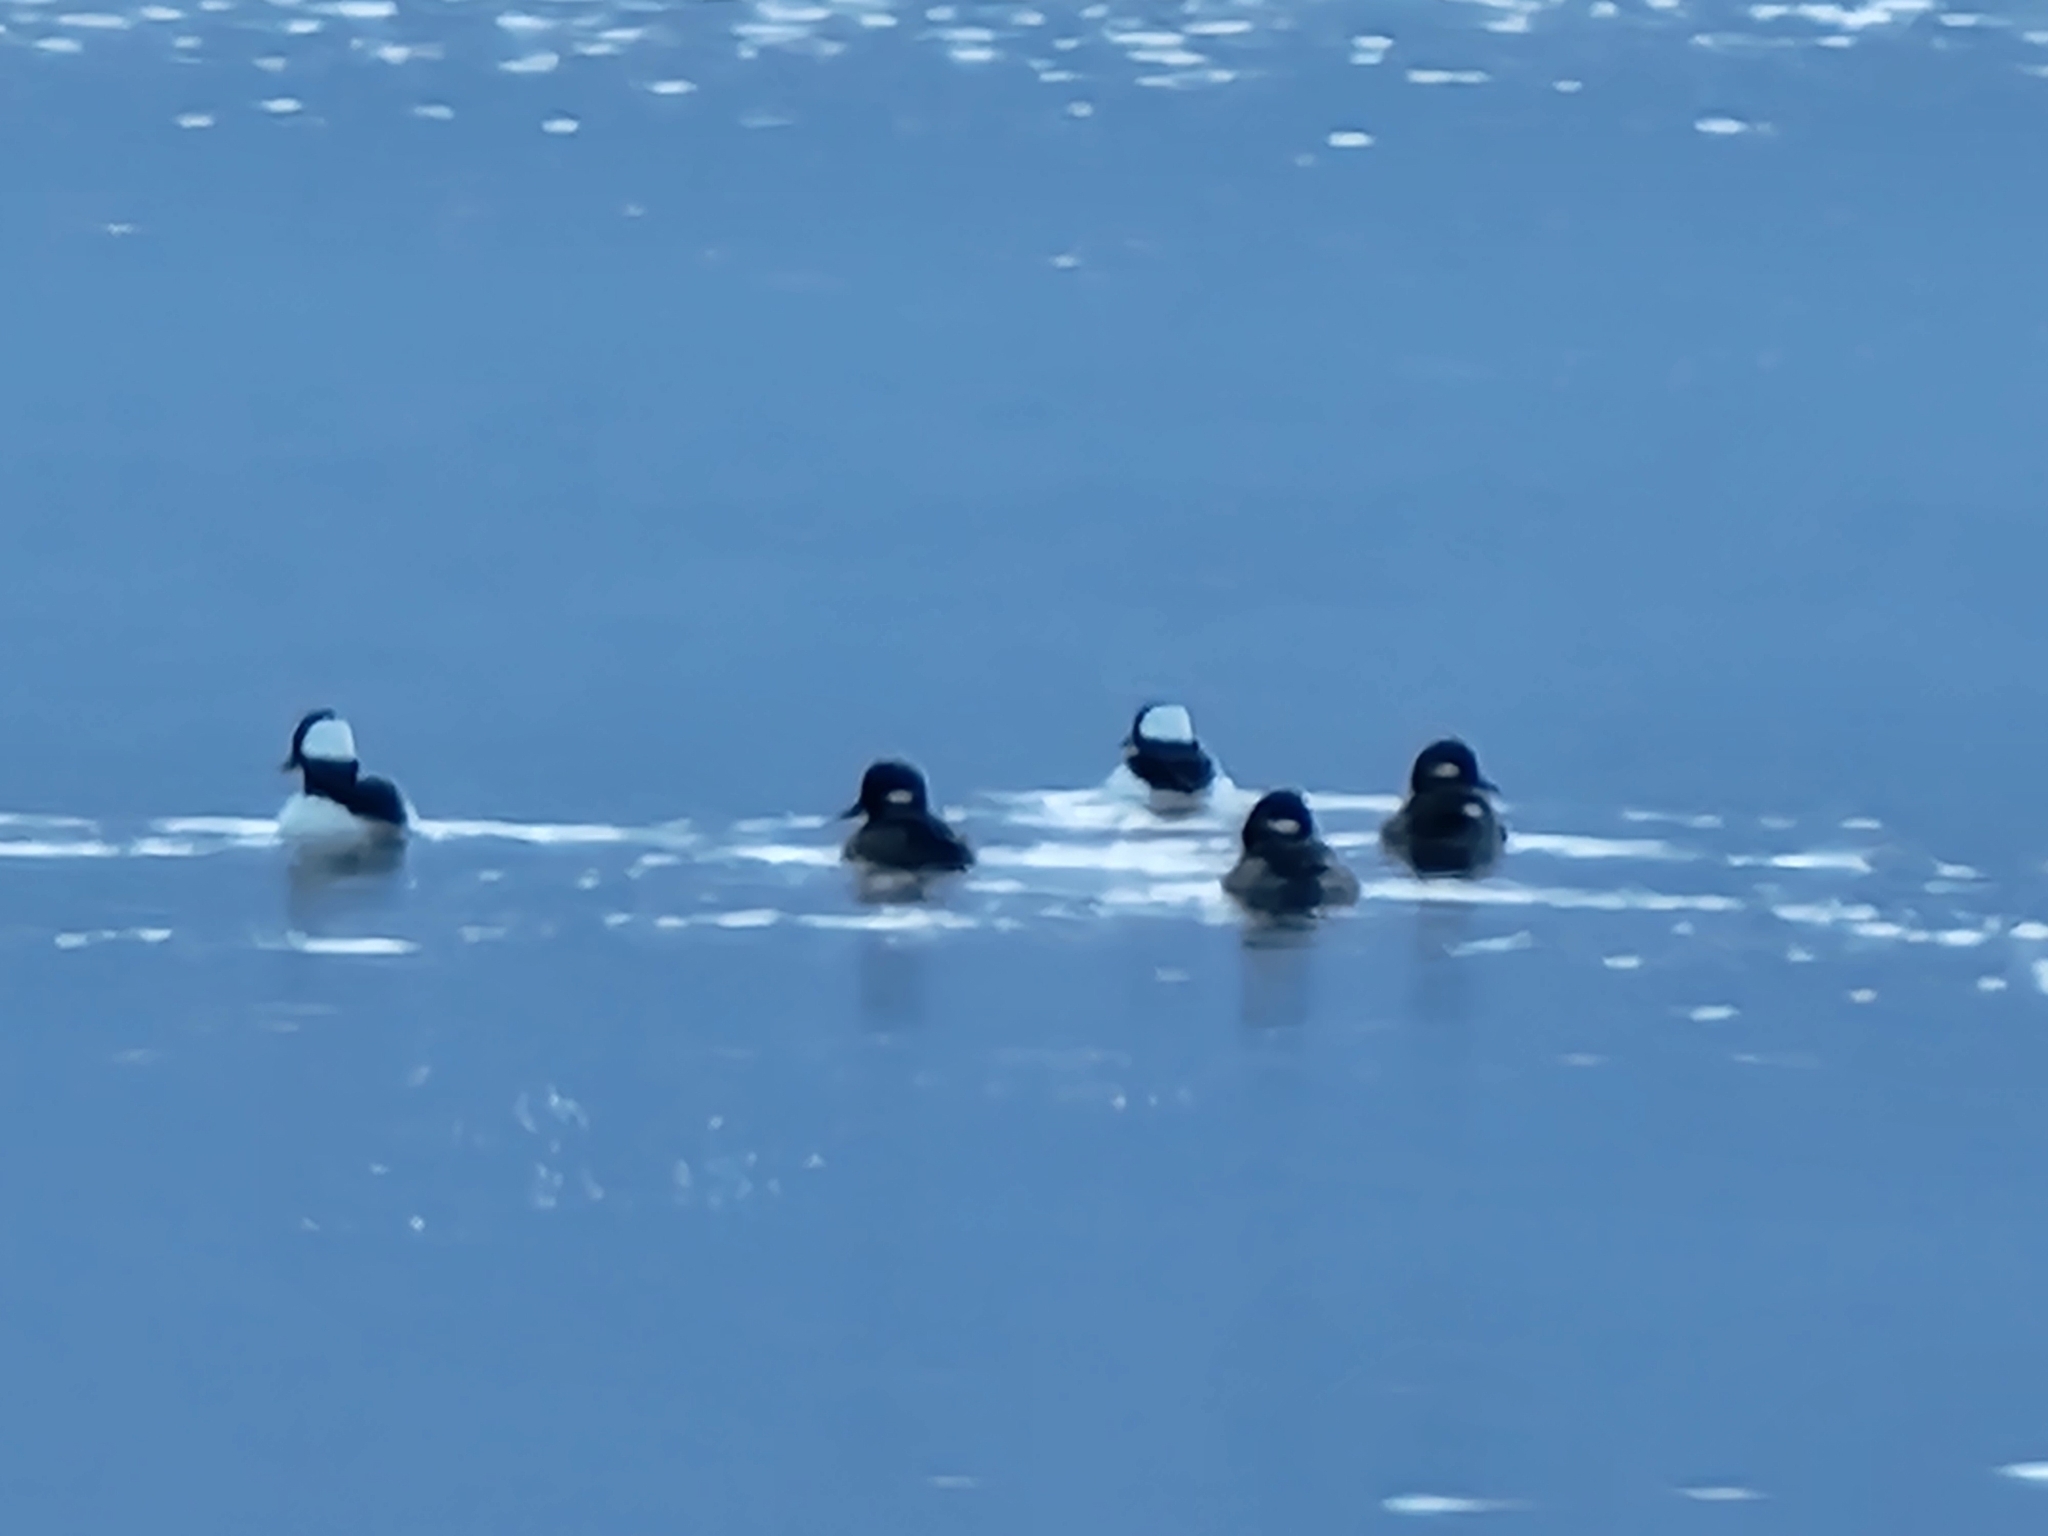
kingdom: Animalia
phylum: Chordata
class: Aves
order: Anseriformes
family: Anatidae
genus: Bucephala
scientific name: Bucephala albeola
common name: Bufflehead
